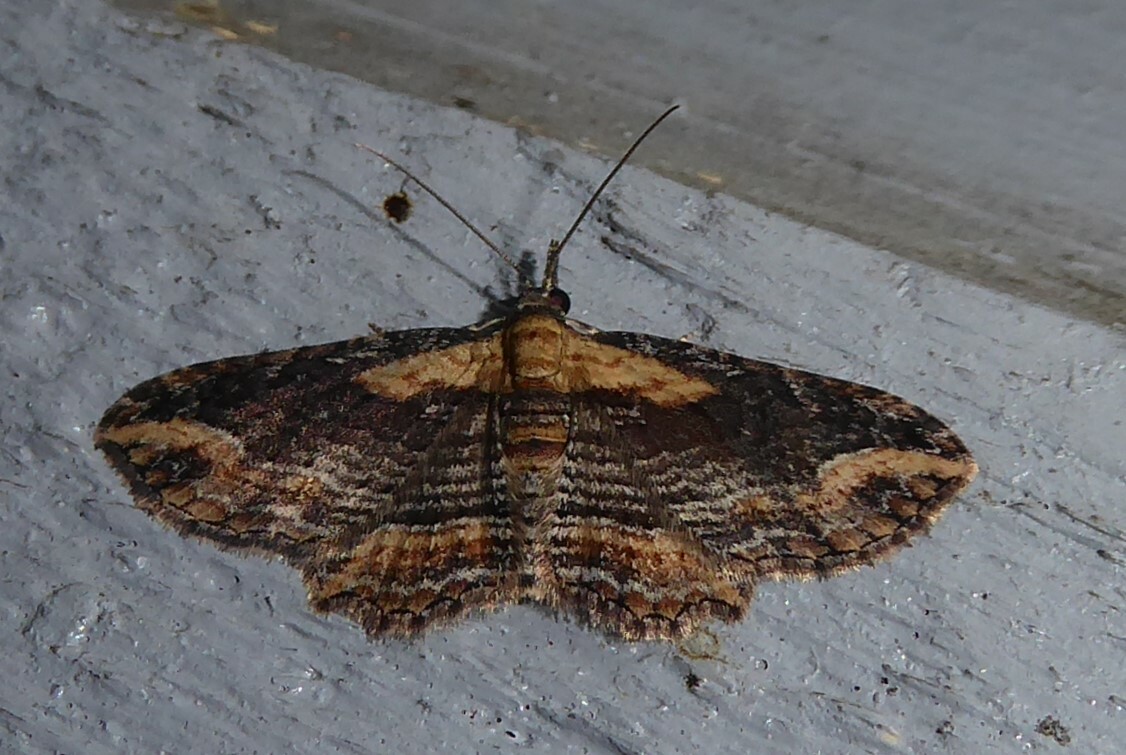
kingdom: Animalia
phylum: Arthropoda
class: Insecta
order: Lepidoptera
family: Geometridae
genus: Chloroclystis
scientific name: Chloroclystis filata
